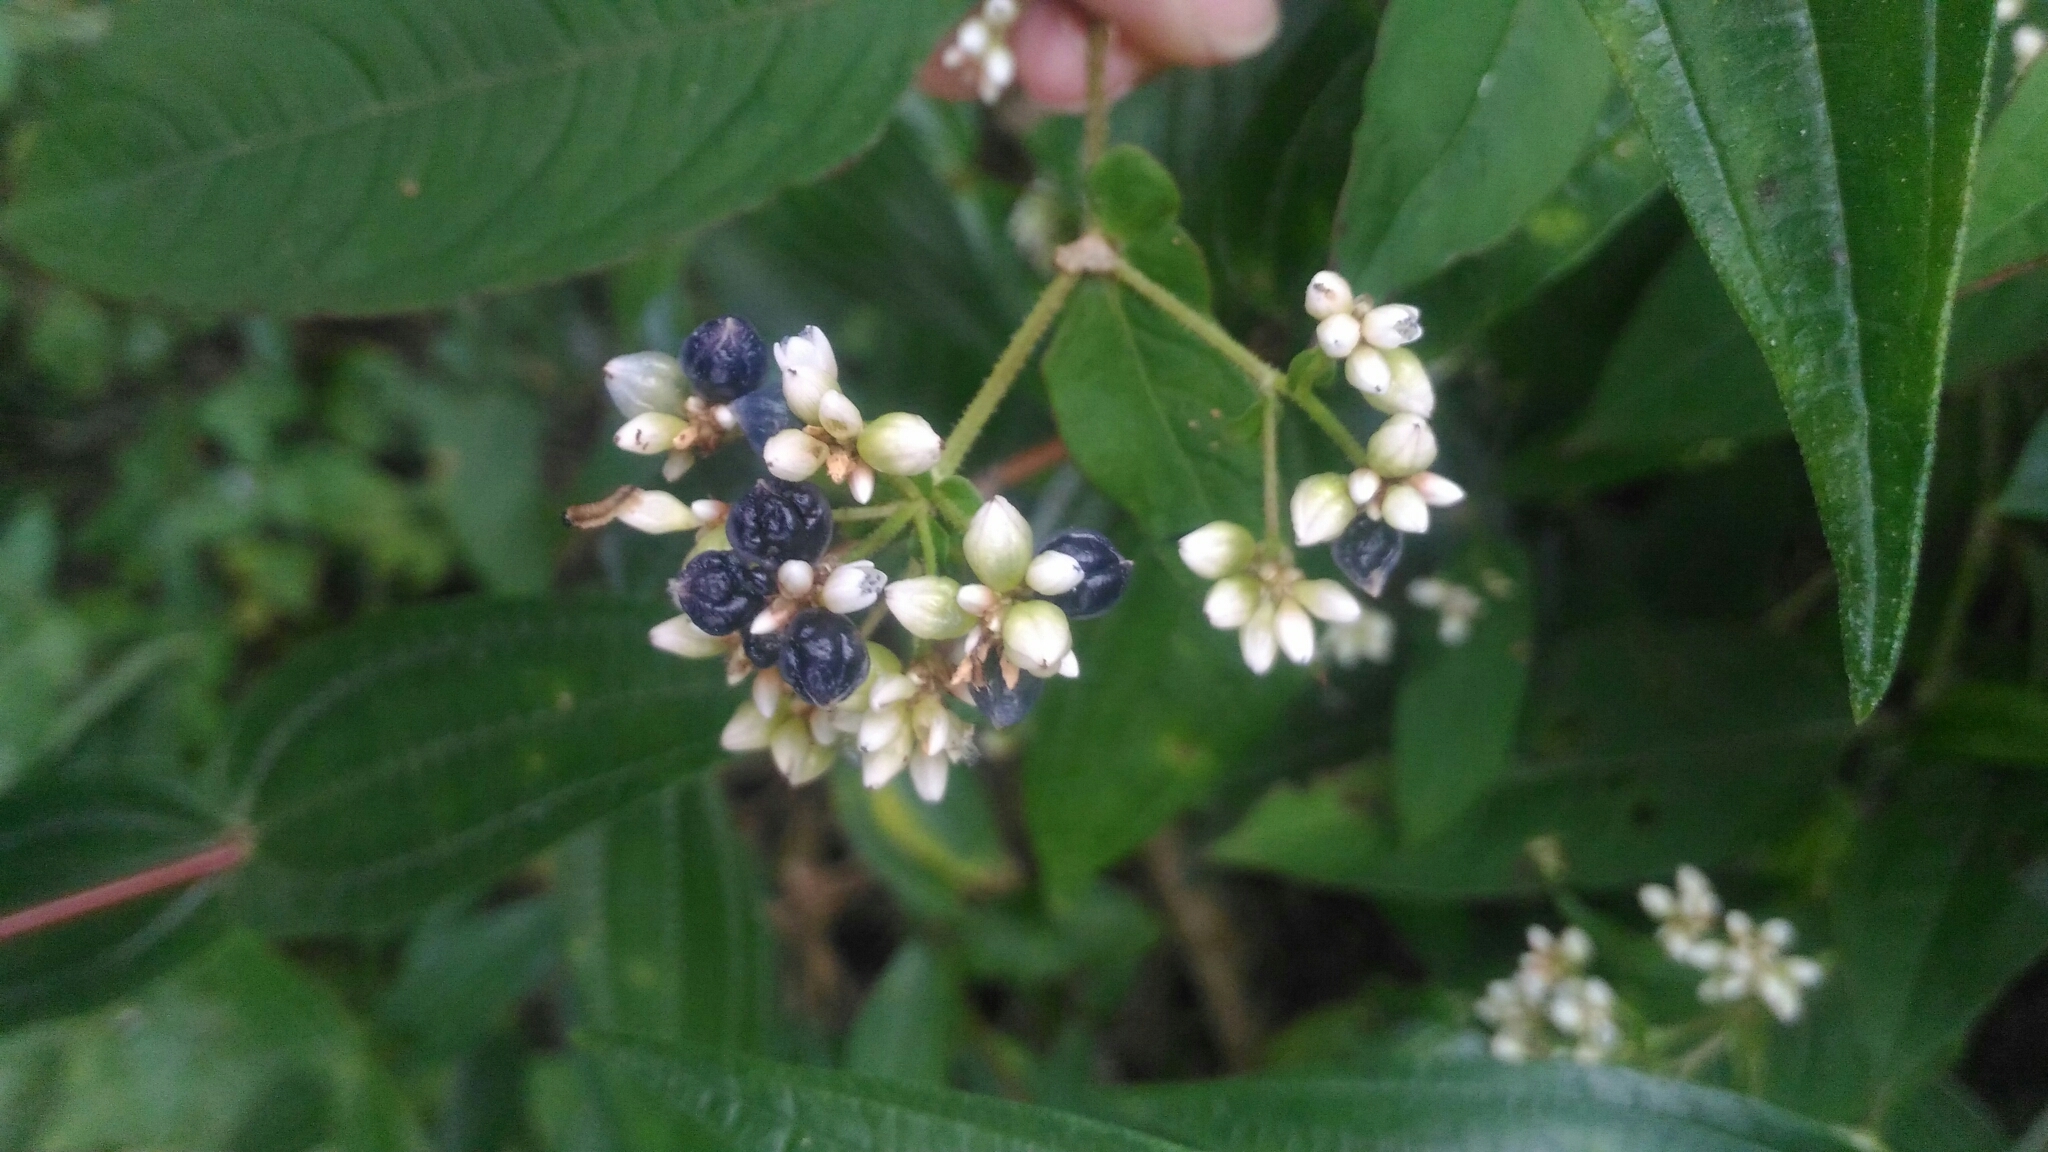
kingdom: Plantae
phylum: Tracheophyta
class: Magnoliopsida
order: Caryophyllales
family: Polygonaceae
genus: Persicaria
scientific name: Persicaria chinensis
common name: Chinese knotweed
